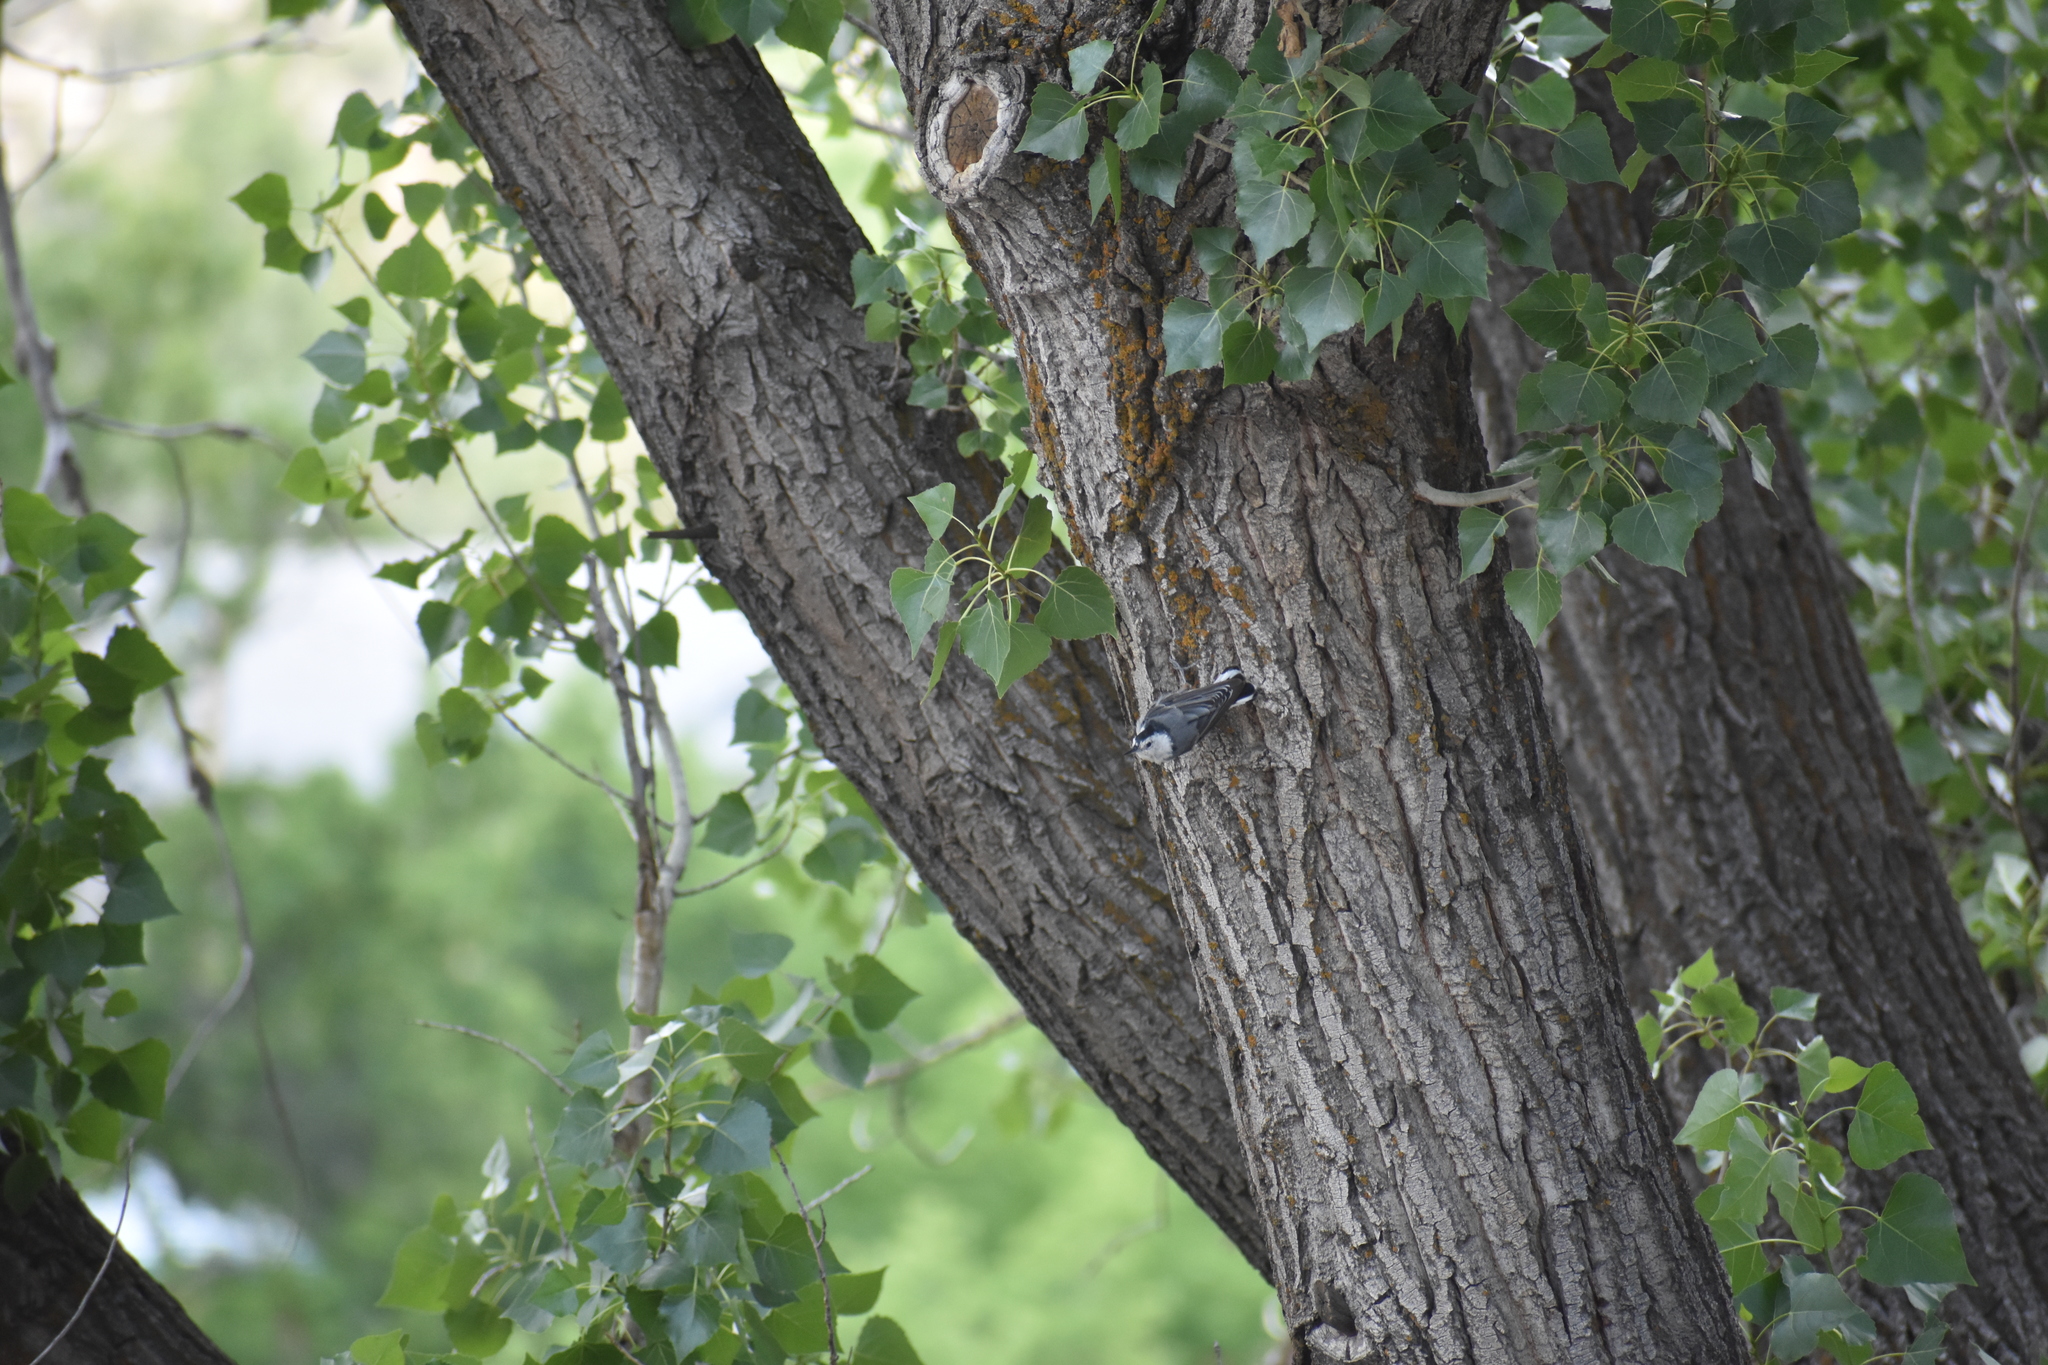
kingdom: Animalia
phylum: Chordata
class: Aves
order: Passeriformes
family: Sittidae
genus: Sitta
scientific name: Sitta carolinensis
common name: White-breasted nuthatch
